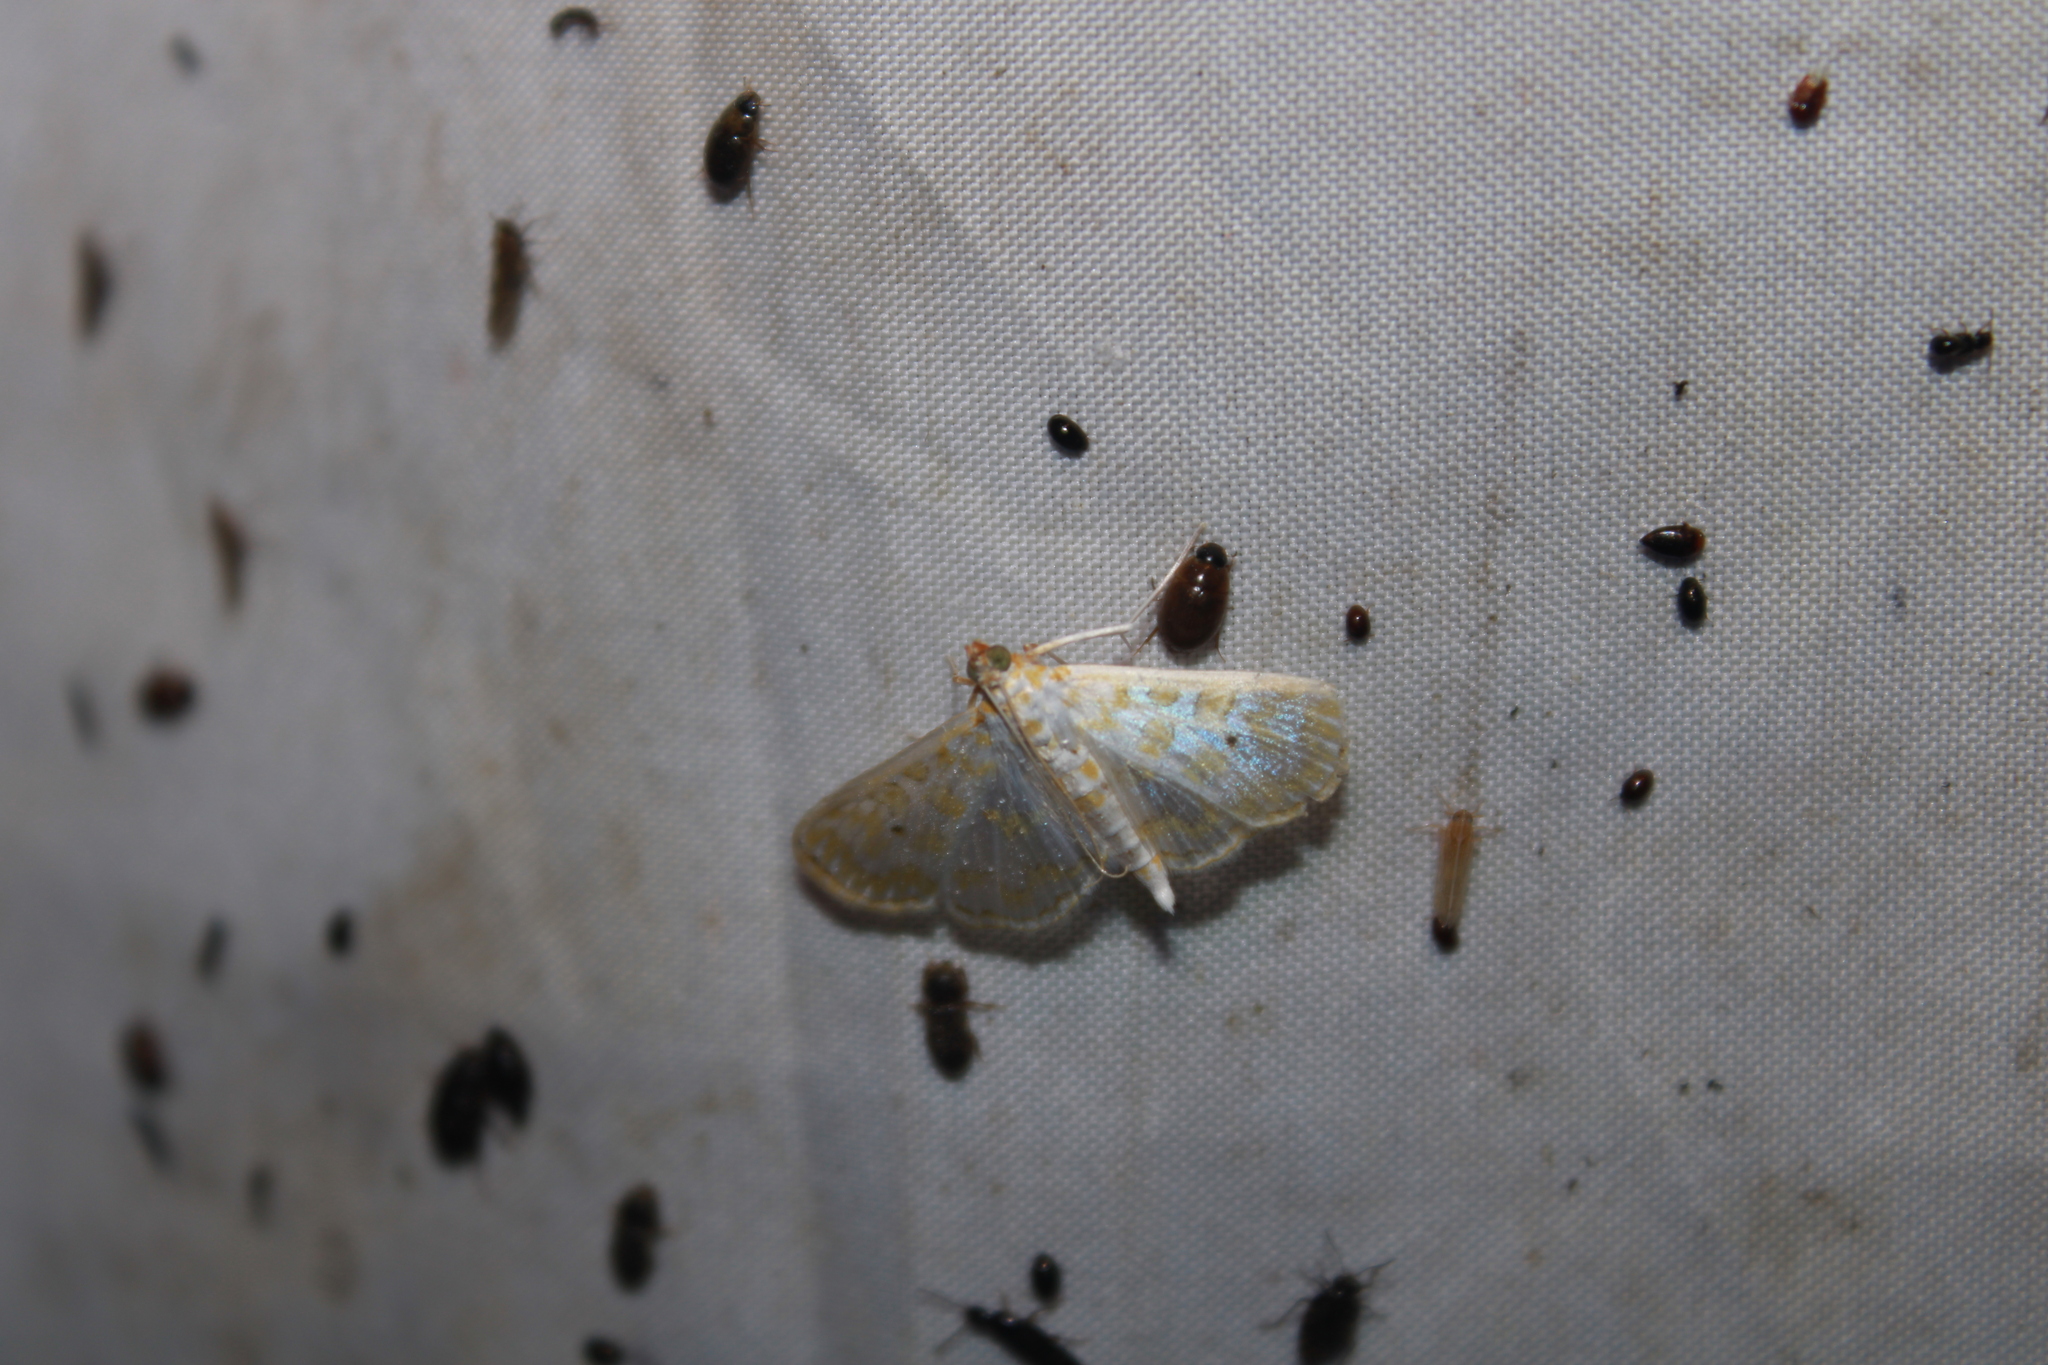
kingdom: Animalia
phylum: Arthropoda
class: Insecta
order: Lepidoptera
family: Crambidae
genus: Leucochroma
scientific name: Leucochroma corope
